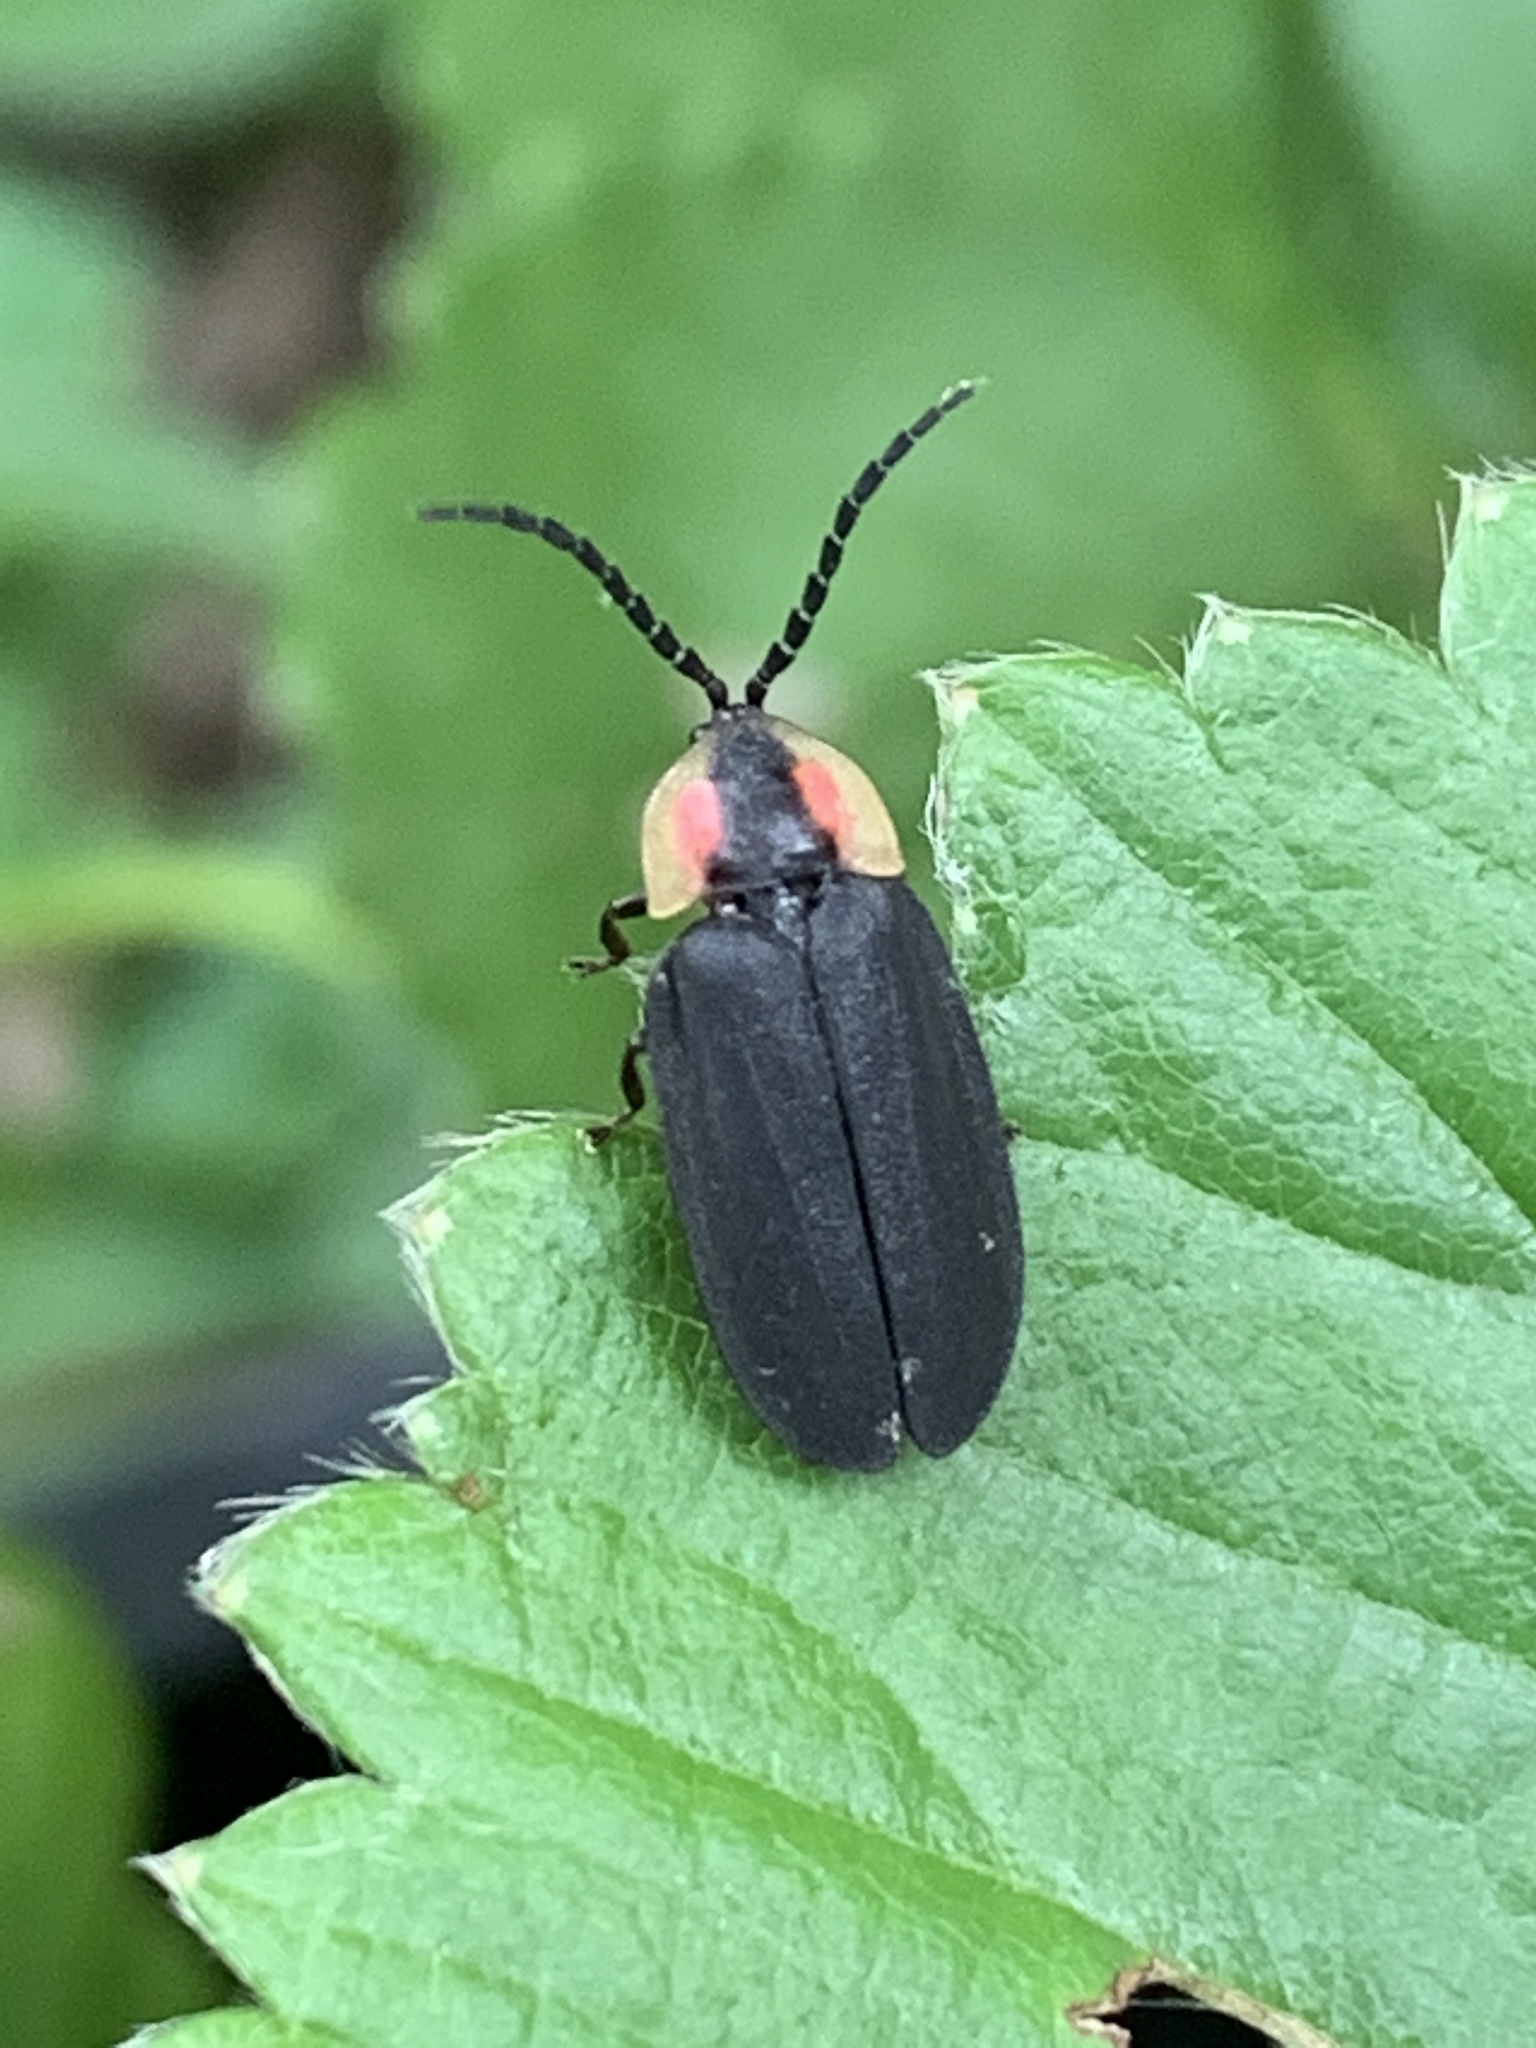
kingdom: Animalia
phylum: Arthropoda
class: Insecta
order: Coleoptera
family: Lampyridae
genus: Lucidota
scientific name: Lucidota atra
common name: Black firefly
